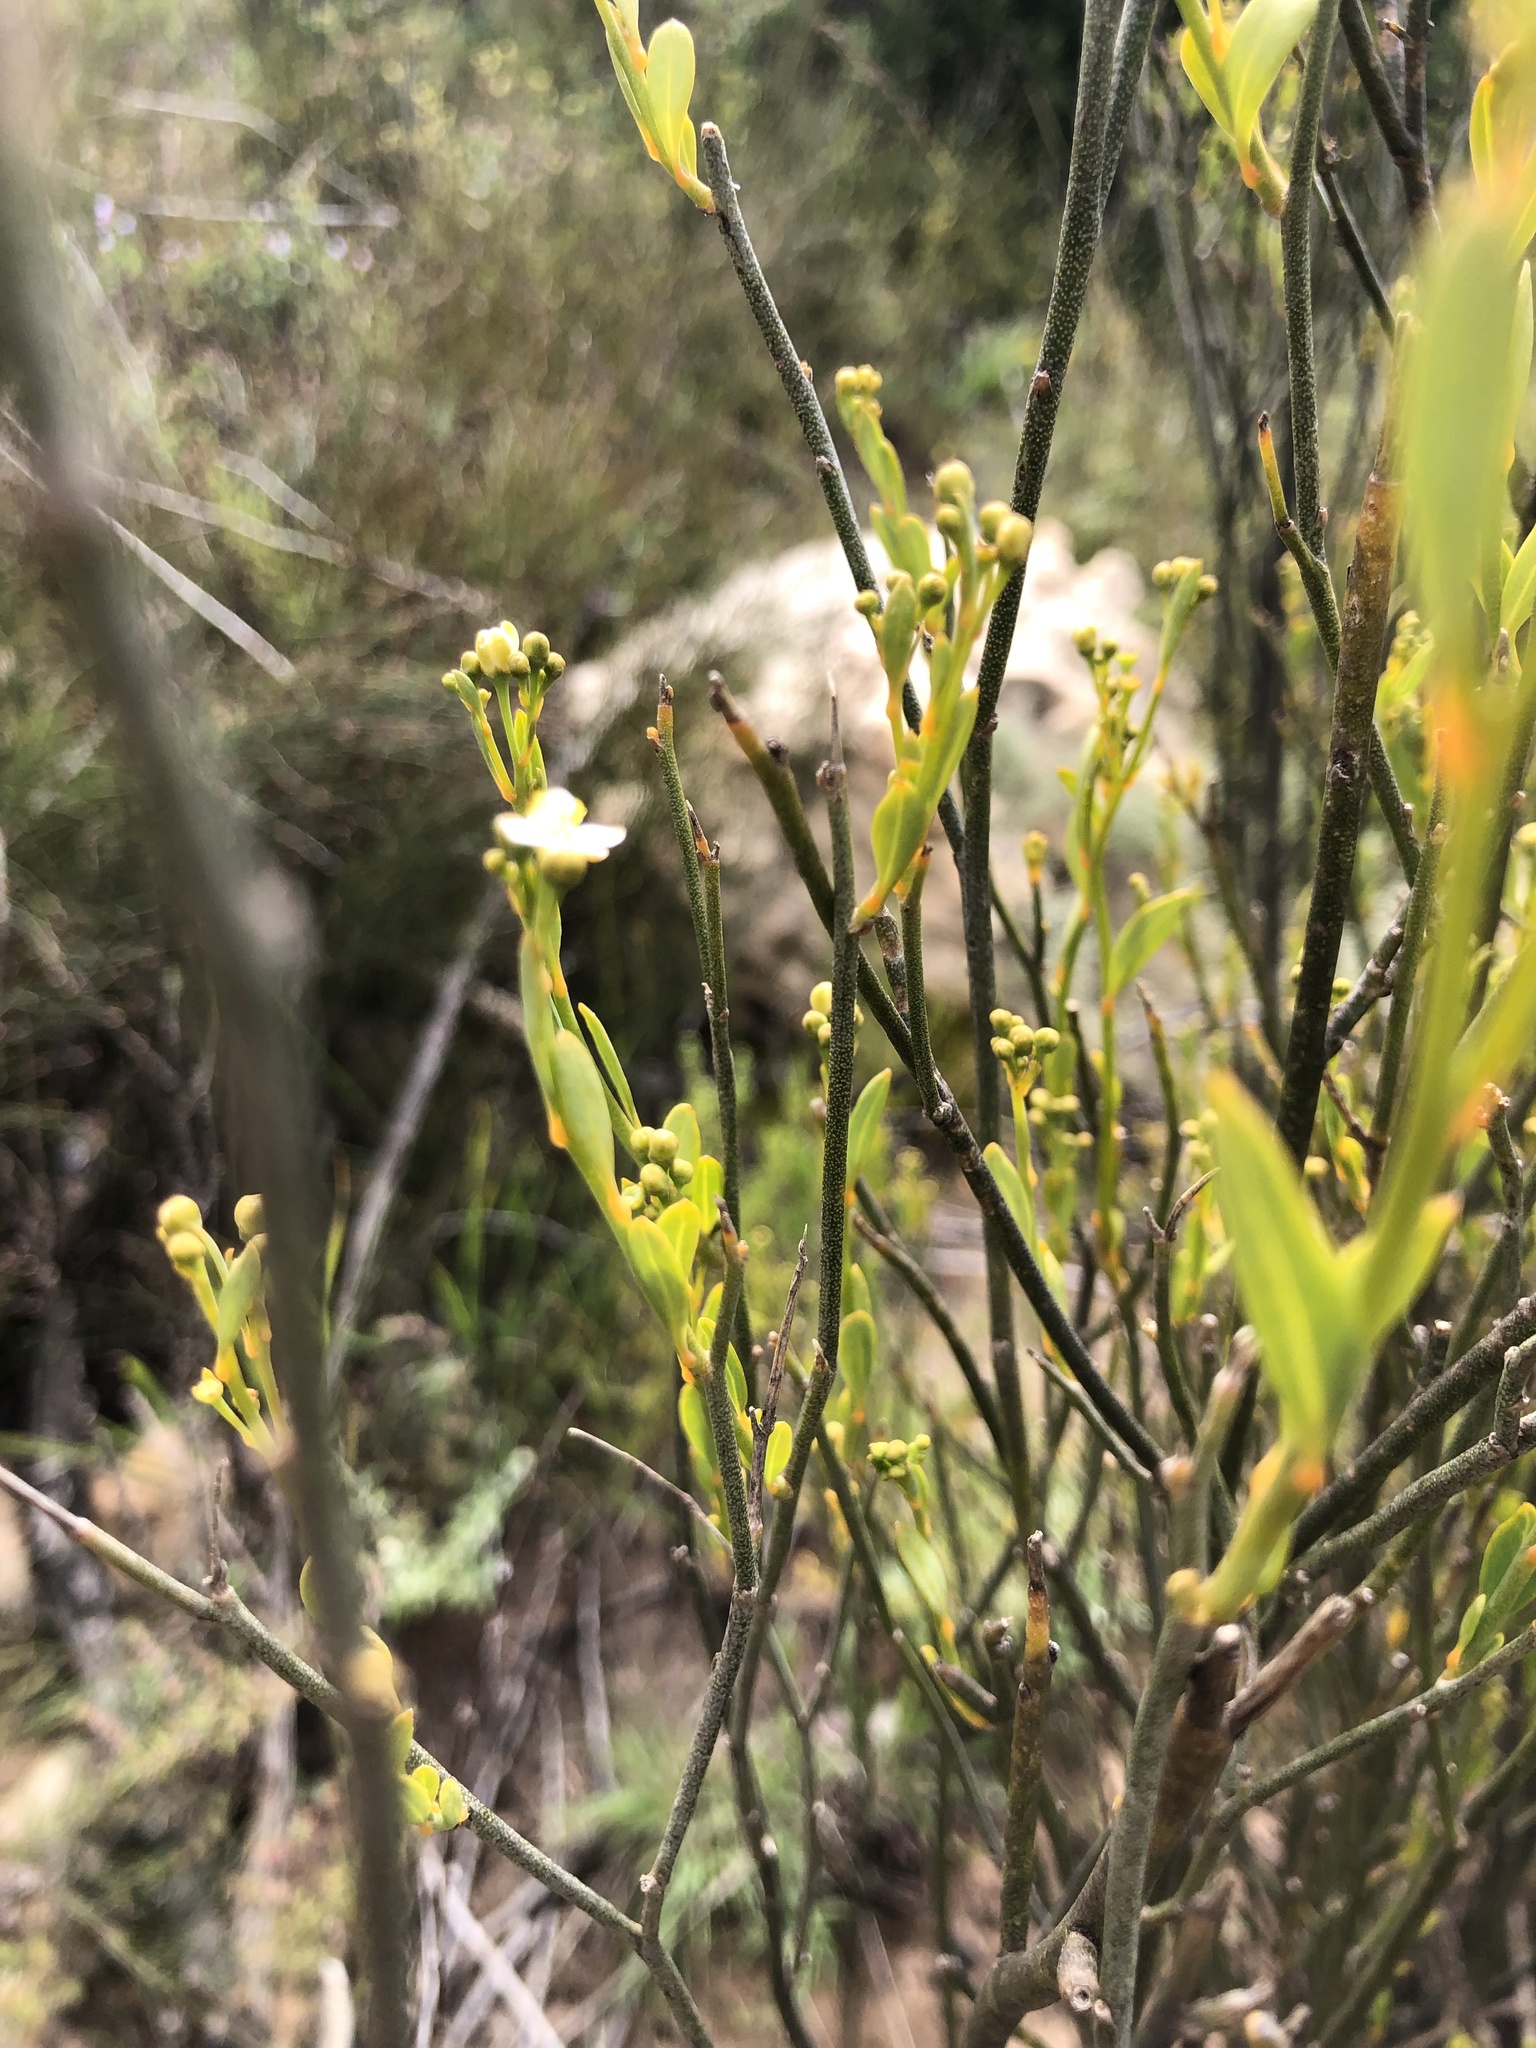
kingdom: Plantae
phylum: Tracheophyta
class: Magnoliopsida
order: Solanales
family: Montiniaceae
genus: Montinia
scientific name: Montinia caryophyllacea
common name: Wild clove-bush
